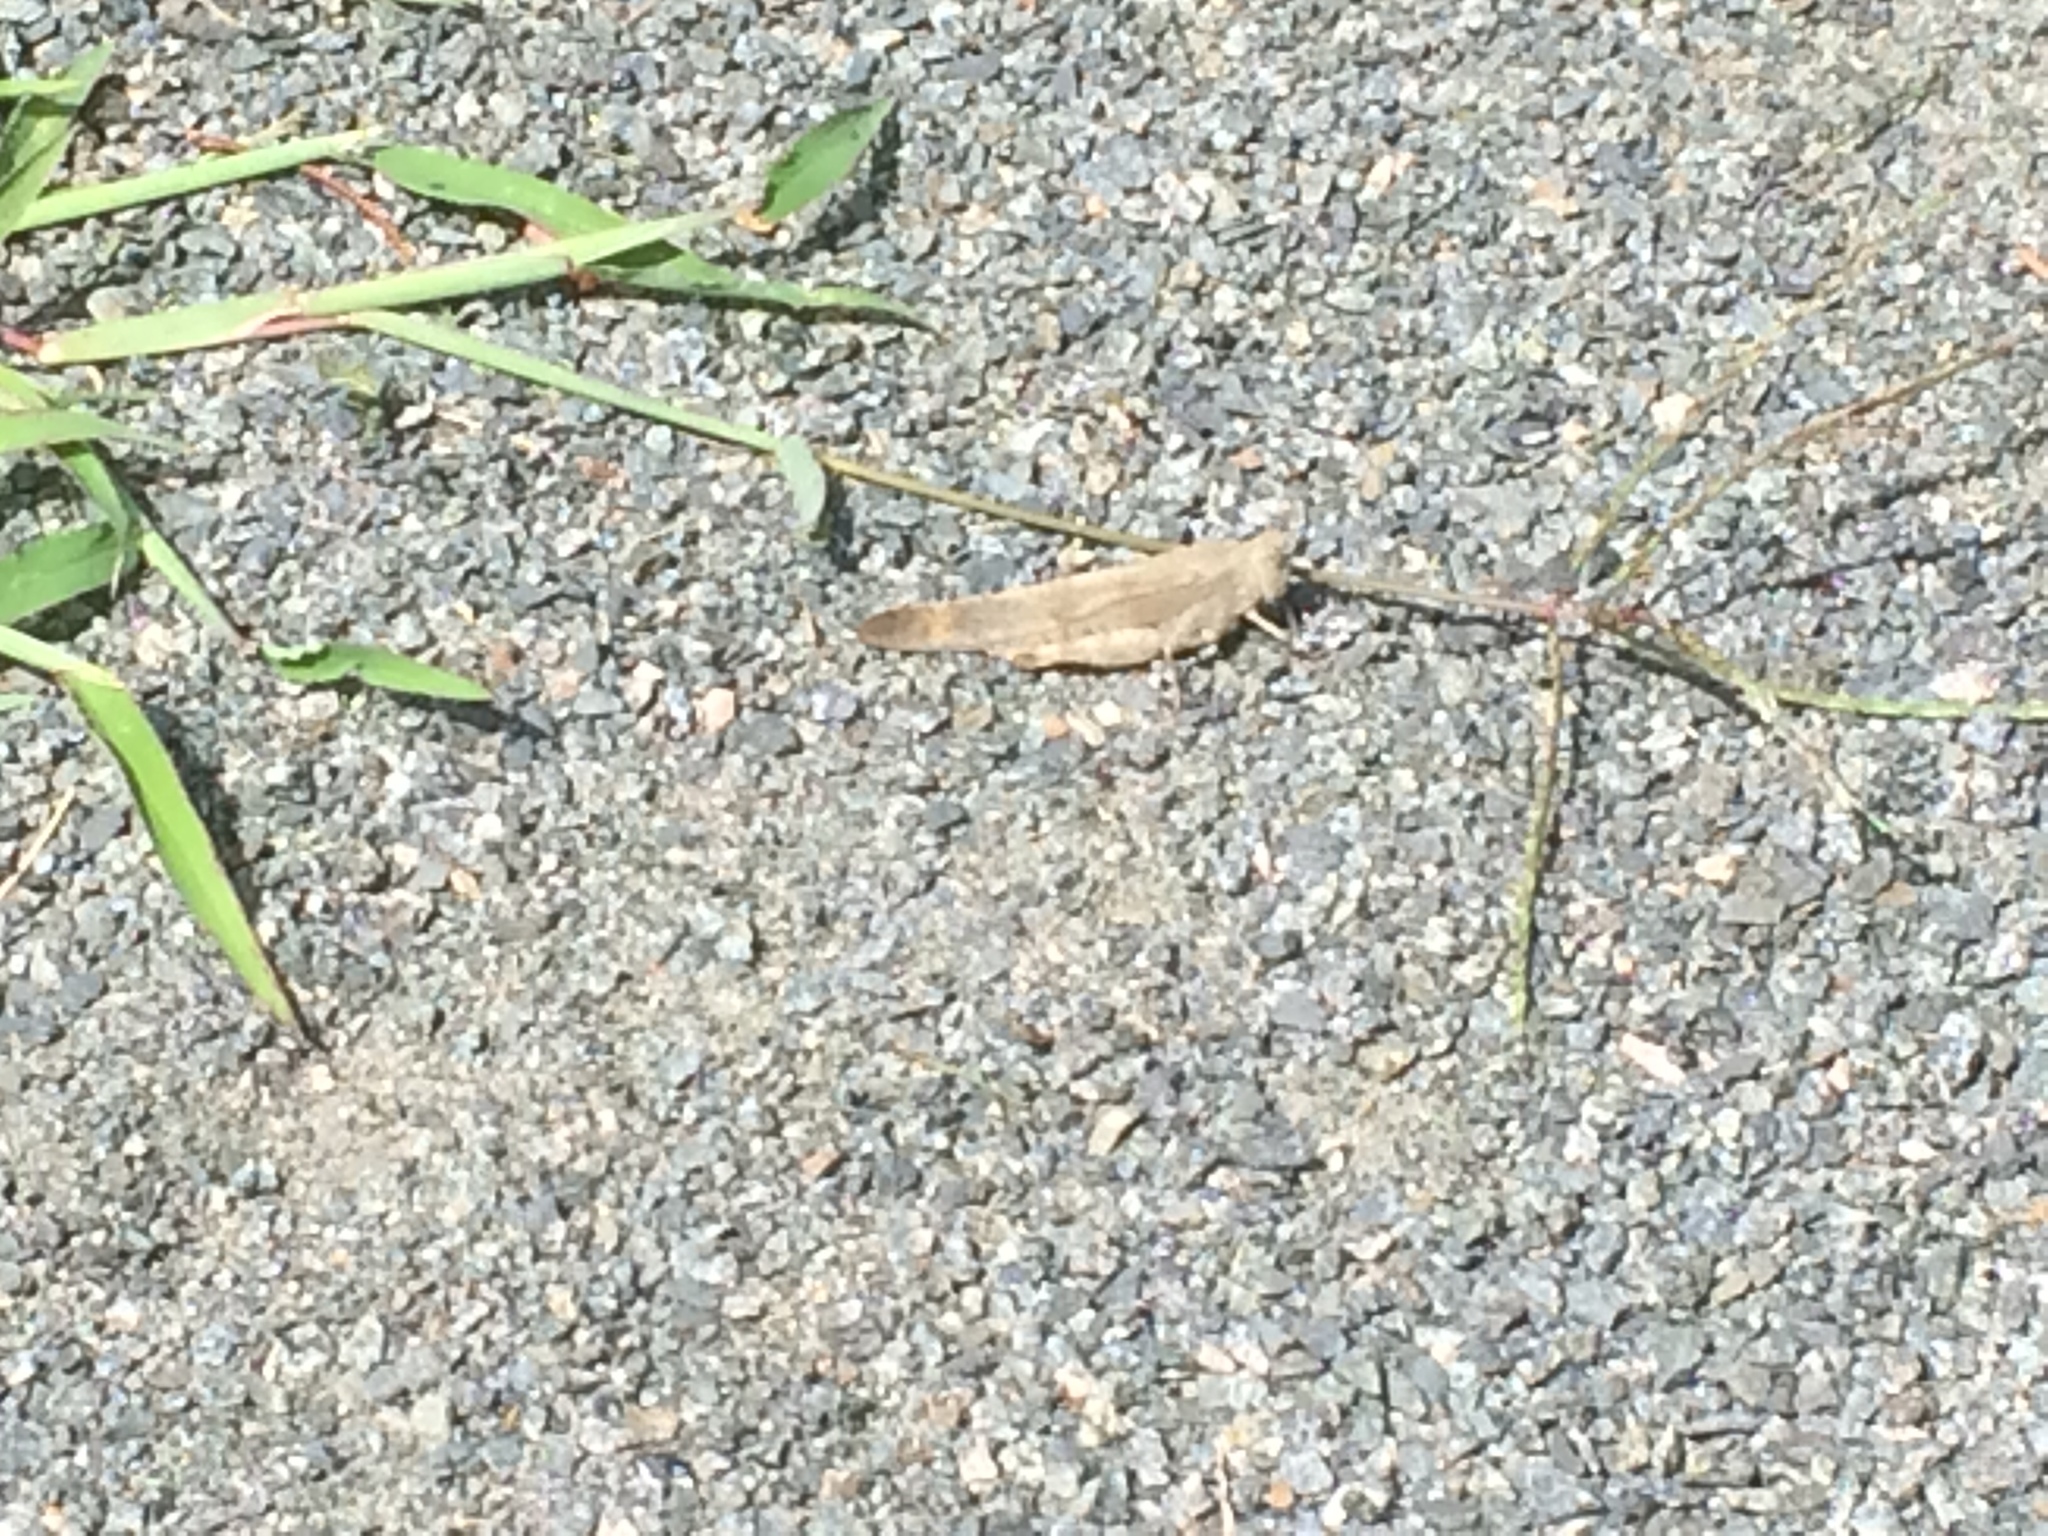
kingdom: Animalia
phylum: Arthropoda
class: Insecta
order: Orthoptera
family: Acrididae
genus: Dissosteira
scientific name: Dissosteira carolina
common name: Carolina grasshopper
